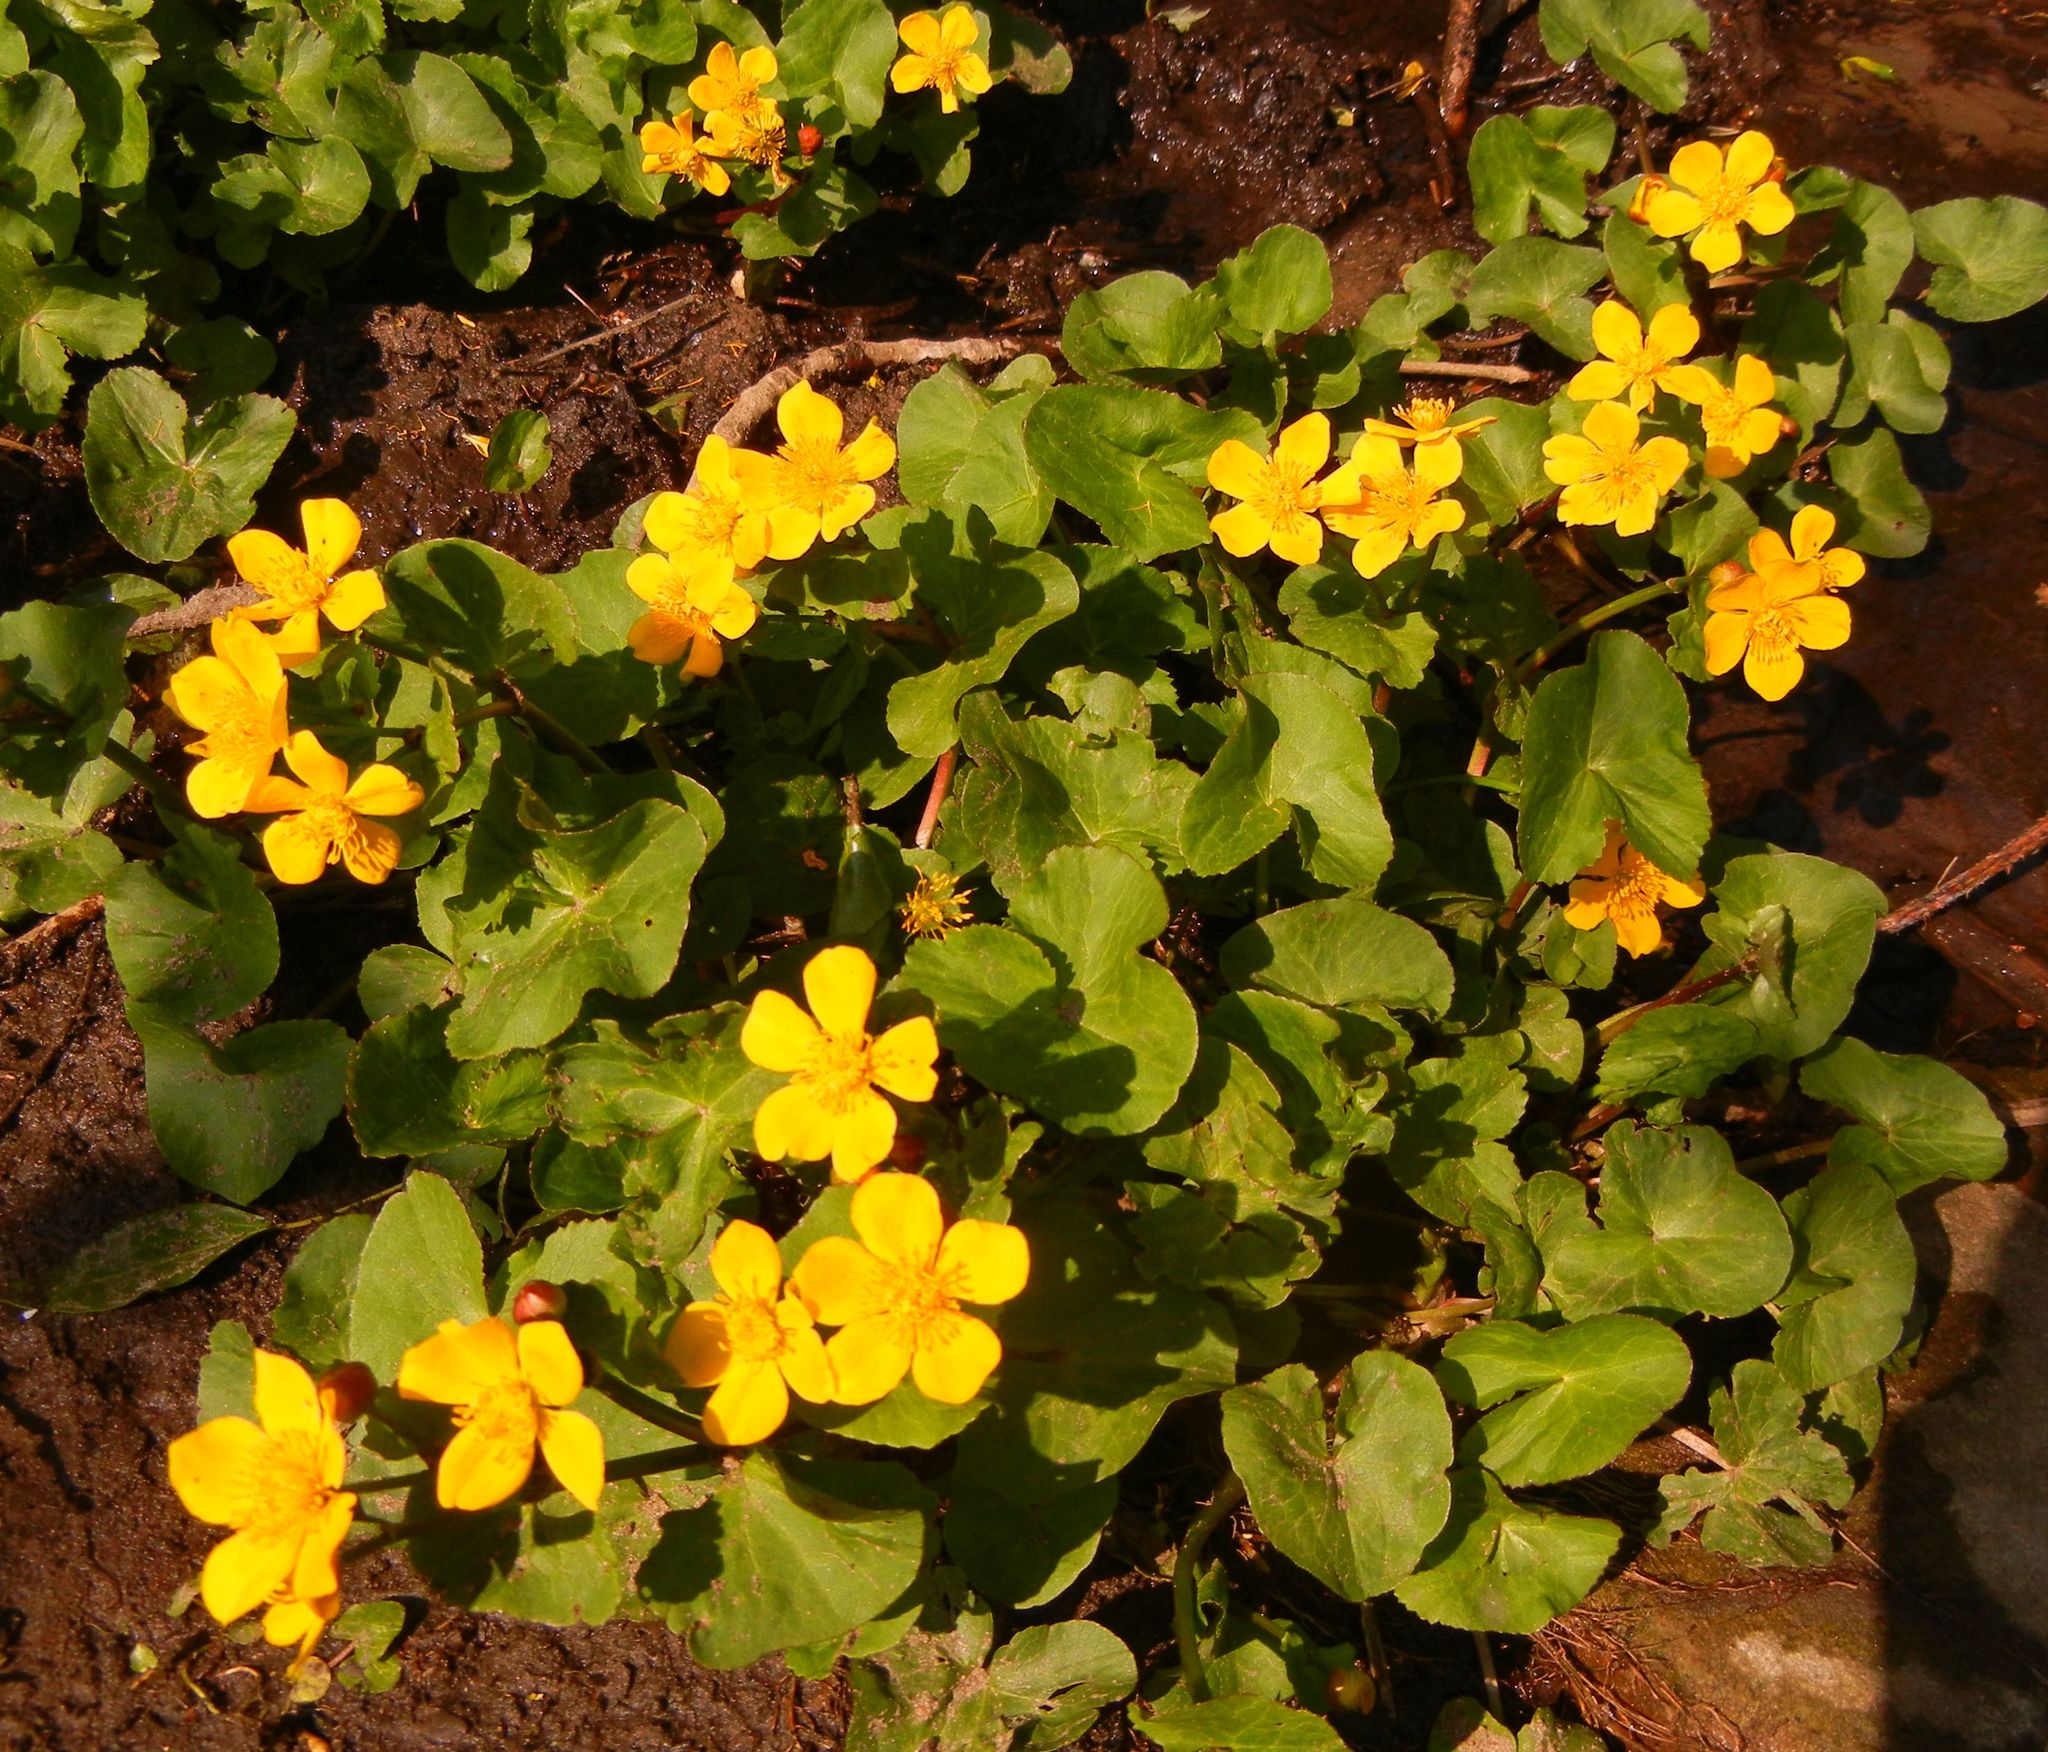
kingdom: Plantae
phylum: Tracheophyta
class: Magnoliopsida
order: Ranunculales
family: Ranunculaceae
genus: Caltha
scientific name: Caltha palustris
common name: Marsh marigold
